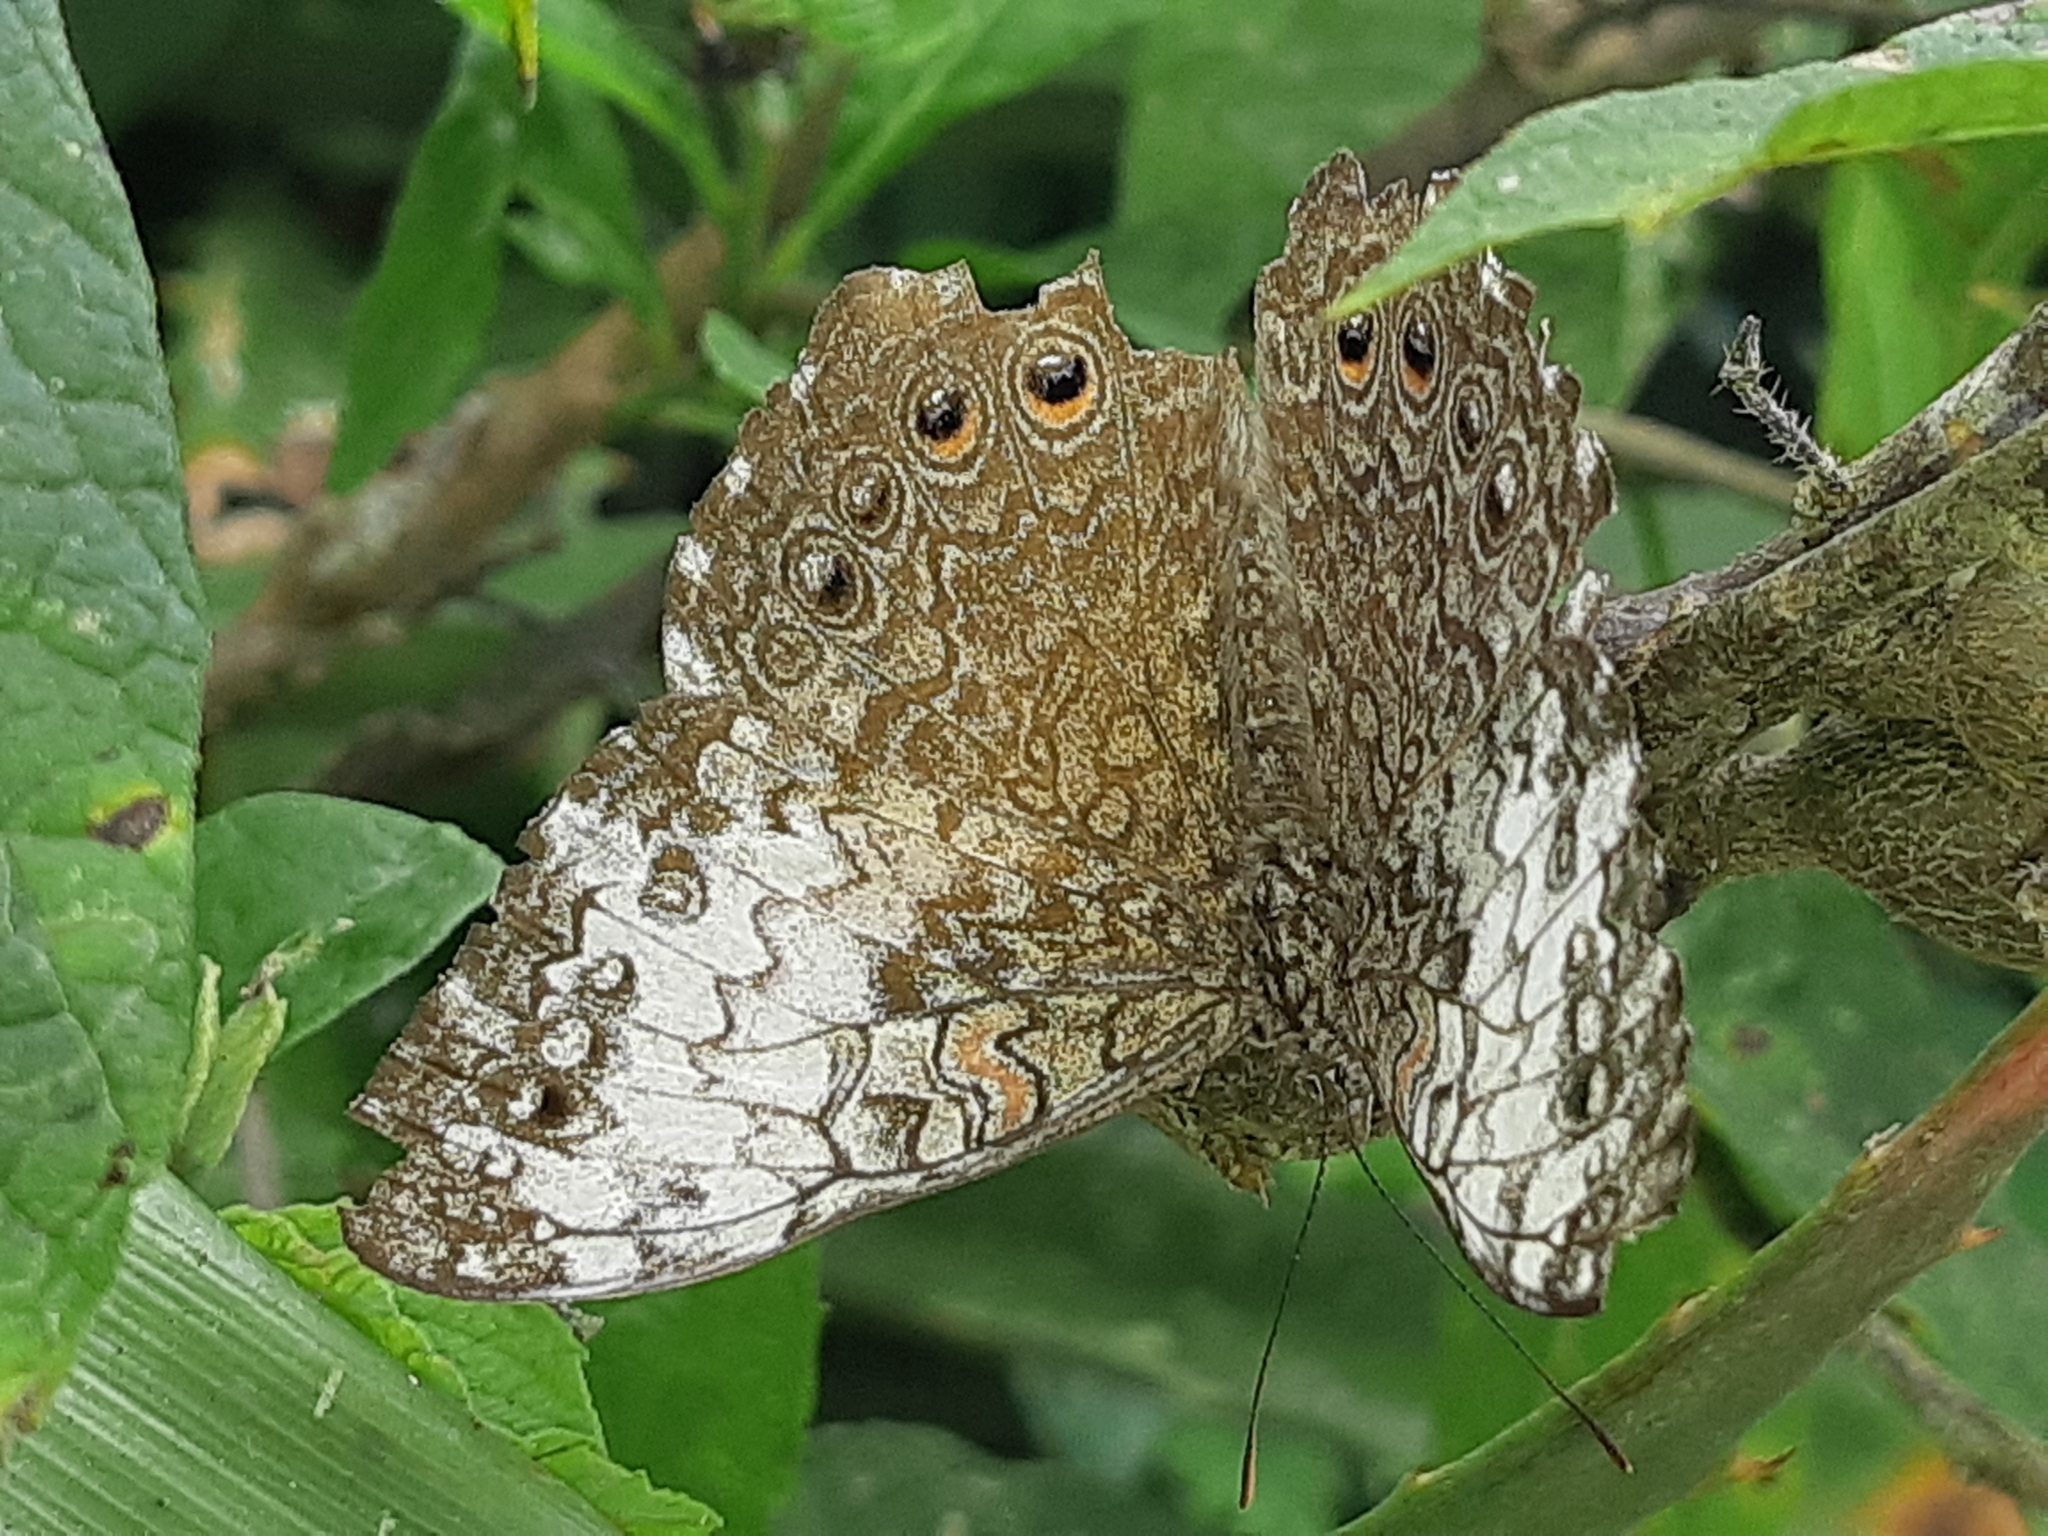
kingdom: Animalia
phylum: Arthropoda
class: Insecta
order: Lepidoptera
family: Nymphalidae
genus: Hamadryas
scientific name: Hamadryas februa
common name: Gray cracker
